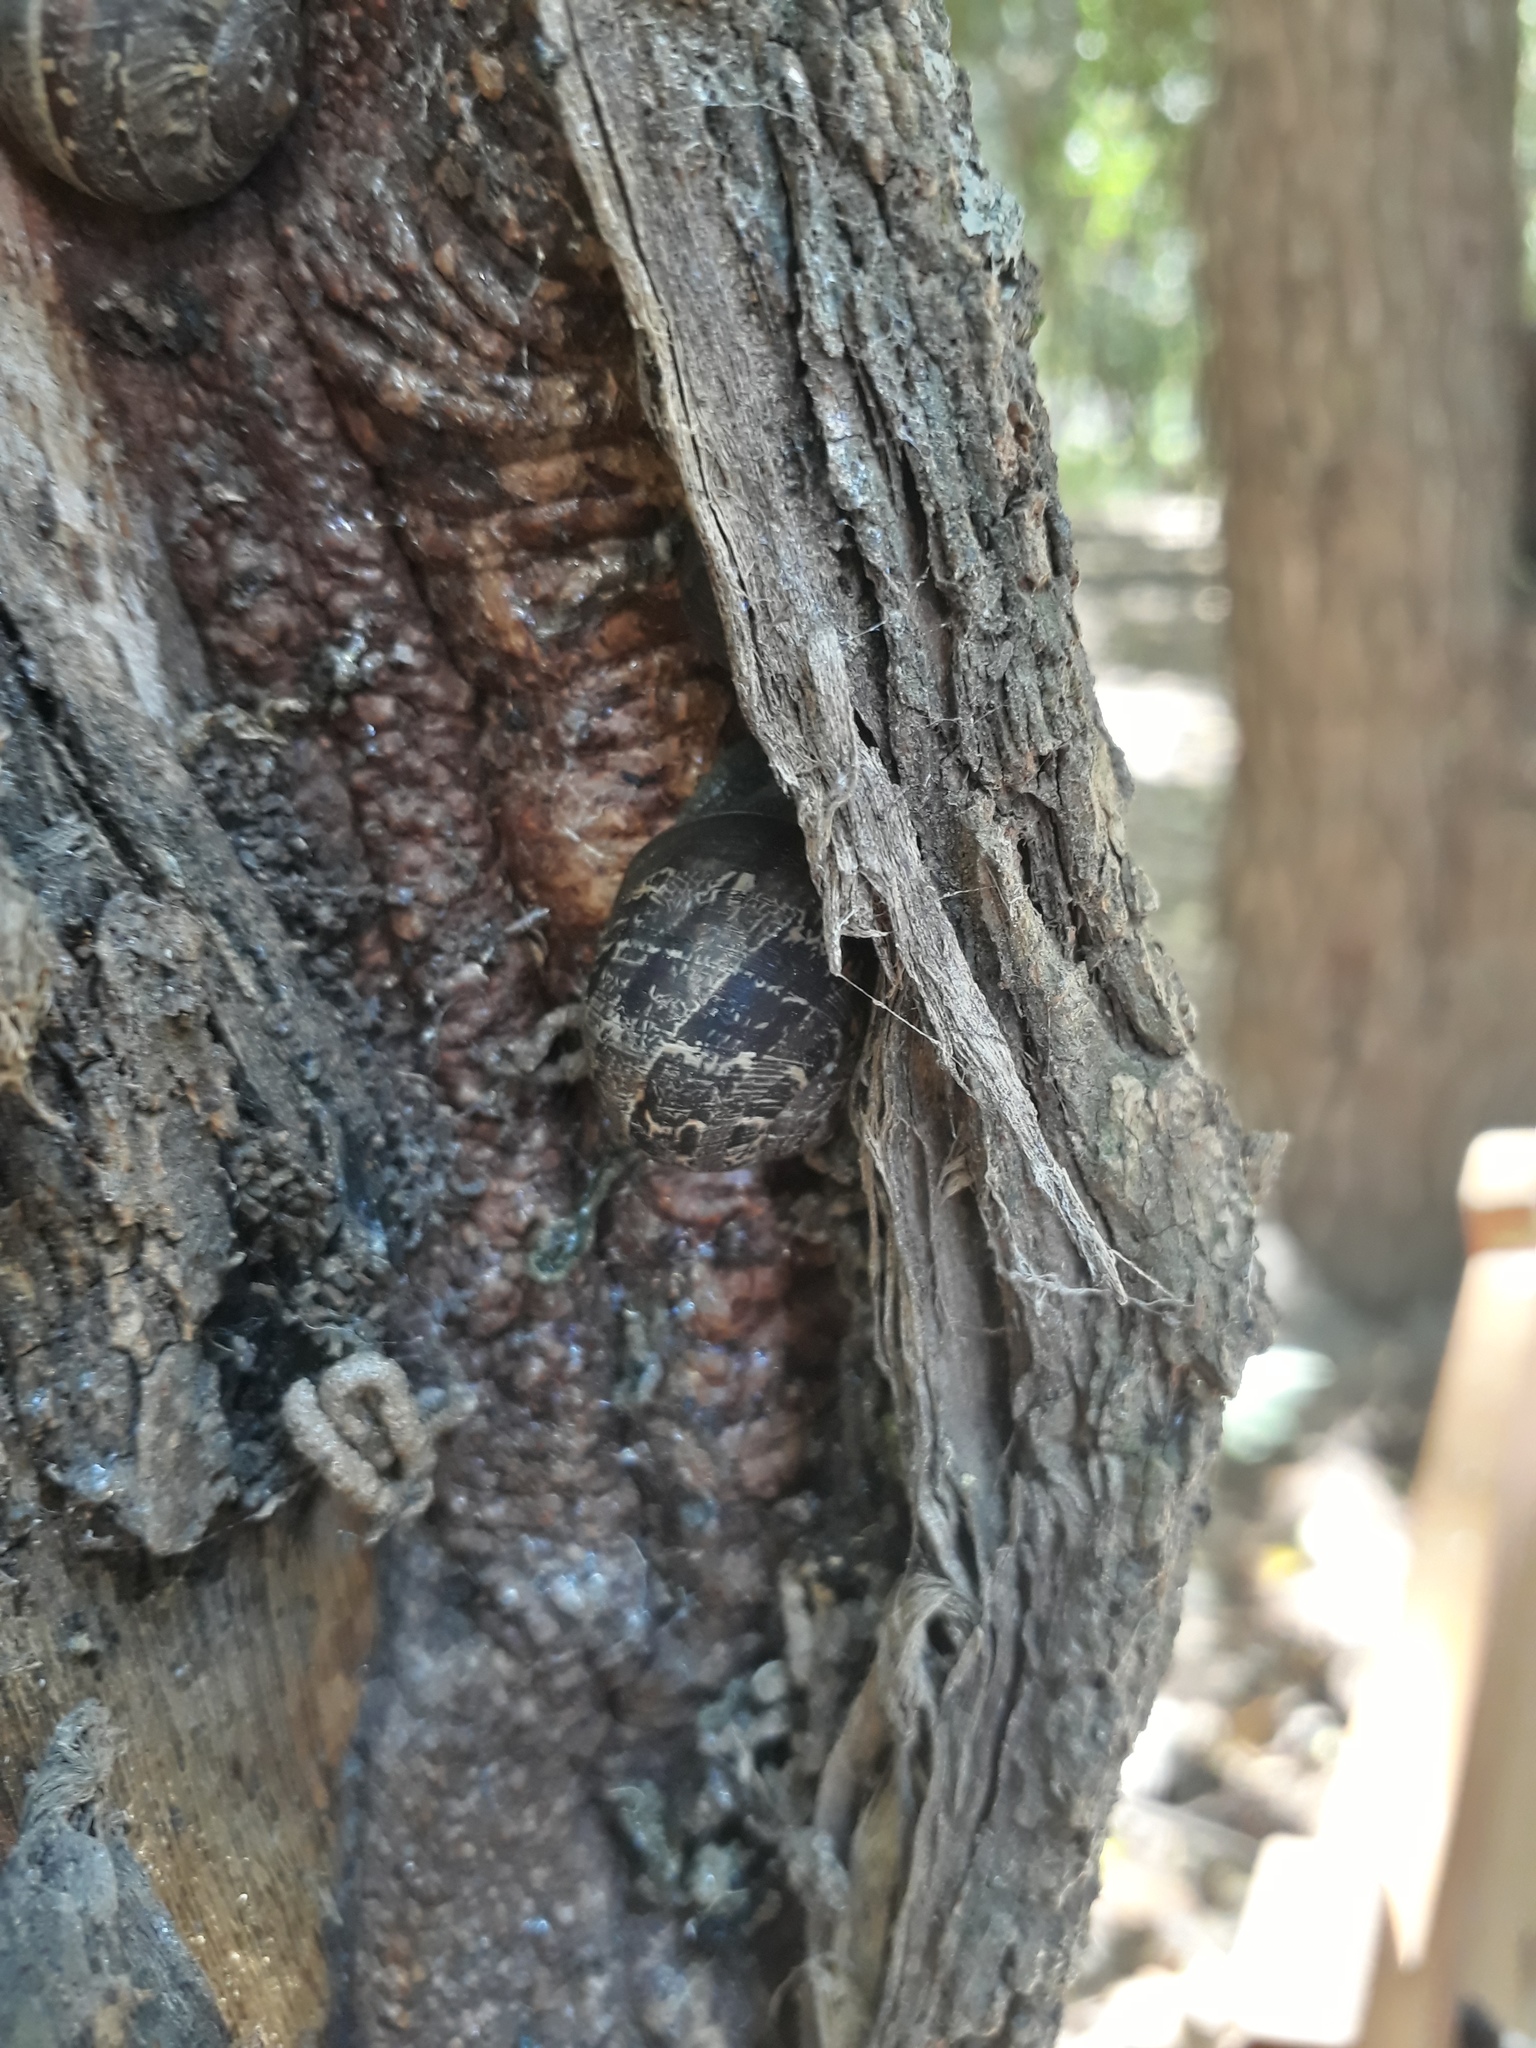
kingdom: Animalia
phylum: Mollusca
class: Gastropoda
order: Stylommatophora
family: Helicidae
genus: Cornu
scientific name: Cornu aspersum
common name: Brown garden snail
